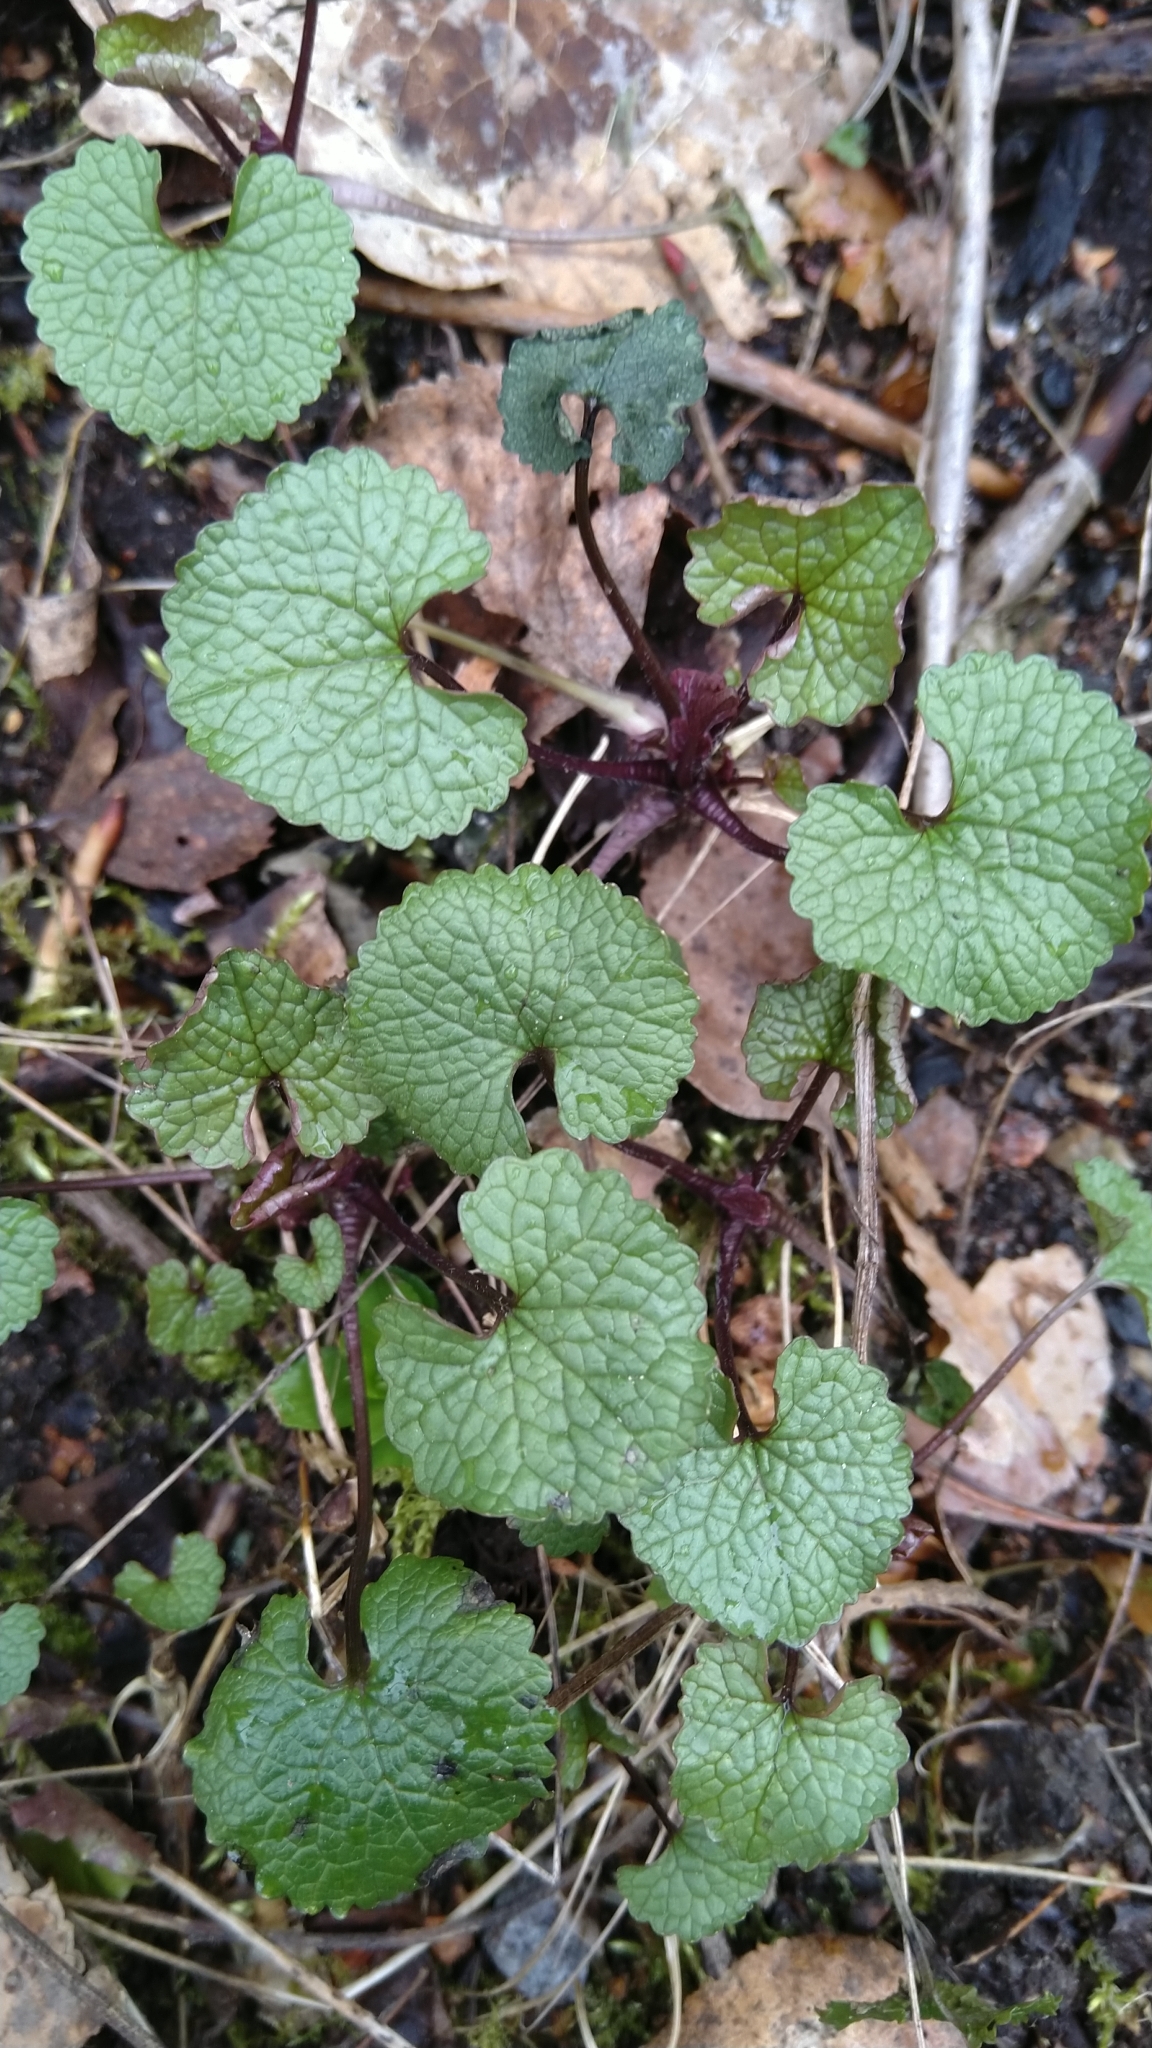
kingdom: Plantae
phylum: Tracheophyta
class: Magnoliopsida
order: Brassicales
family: Brassicaceae
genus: Alliaria
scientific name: Alliaria petiolata
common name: Garlic mustard
